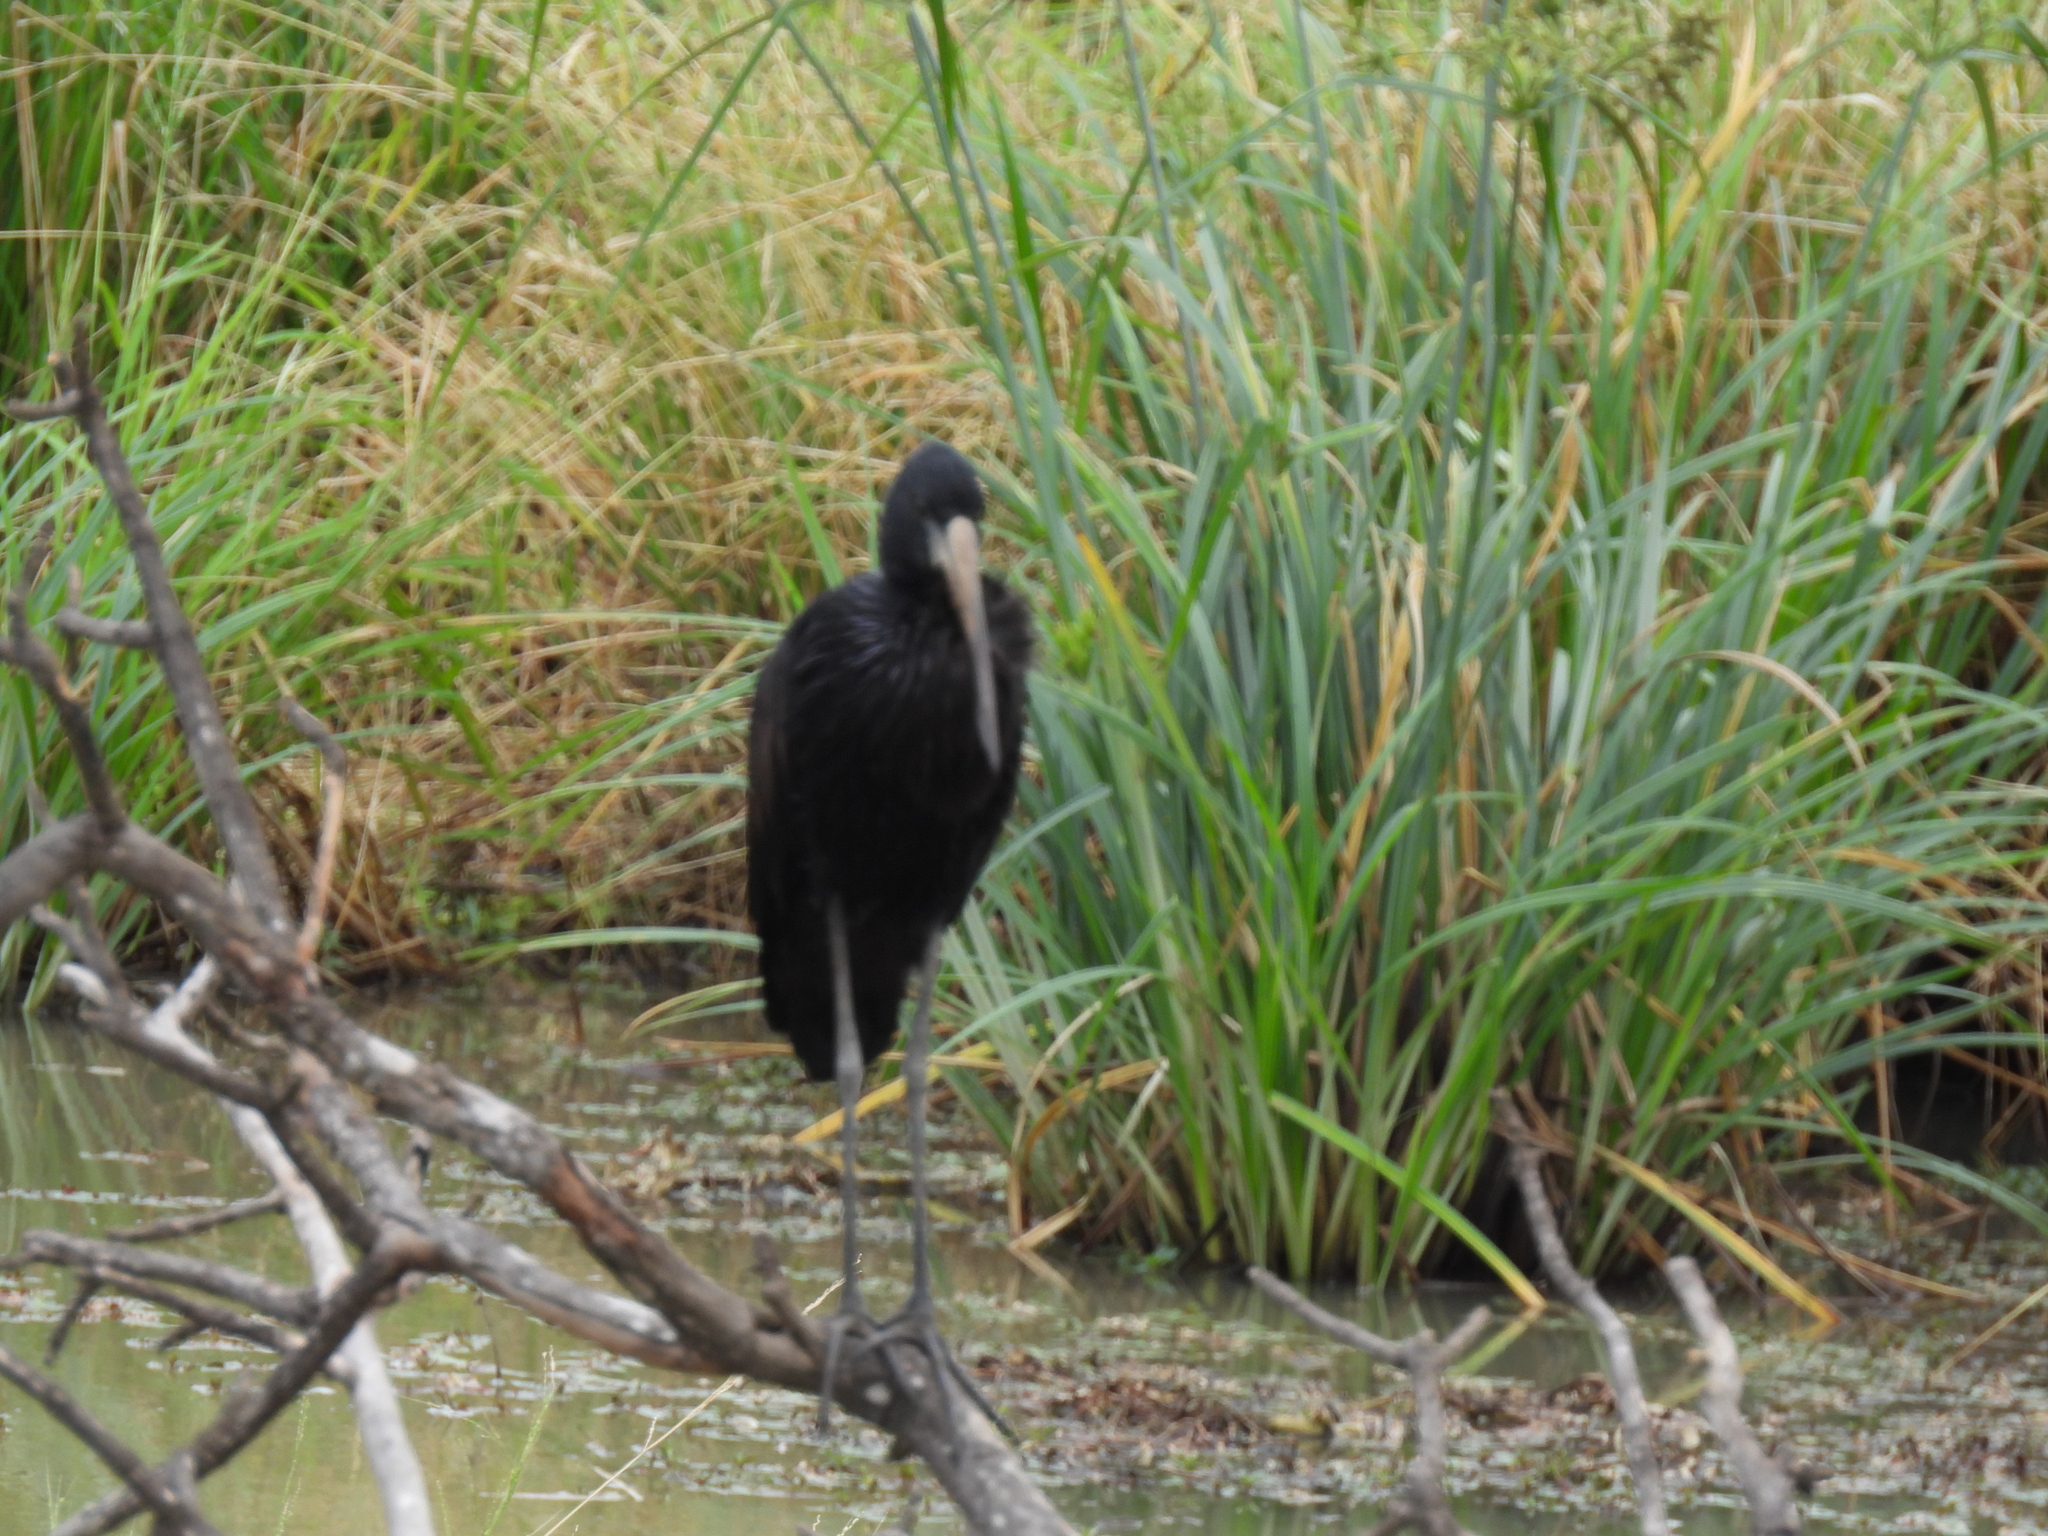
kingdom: Animalia
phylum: Chordata
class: Aves
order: Ciconiiformes
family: Ciconiidae
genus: Anastomus
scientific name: Anastomus lamelligerus
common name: African openbill
